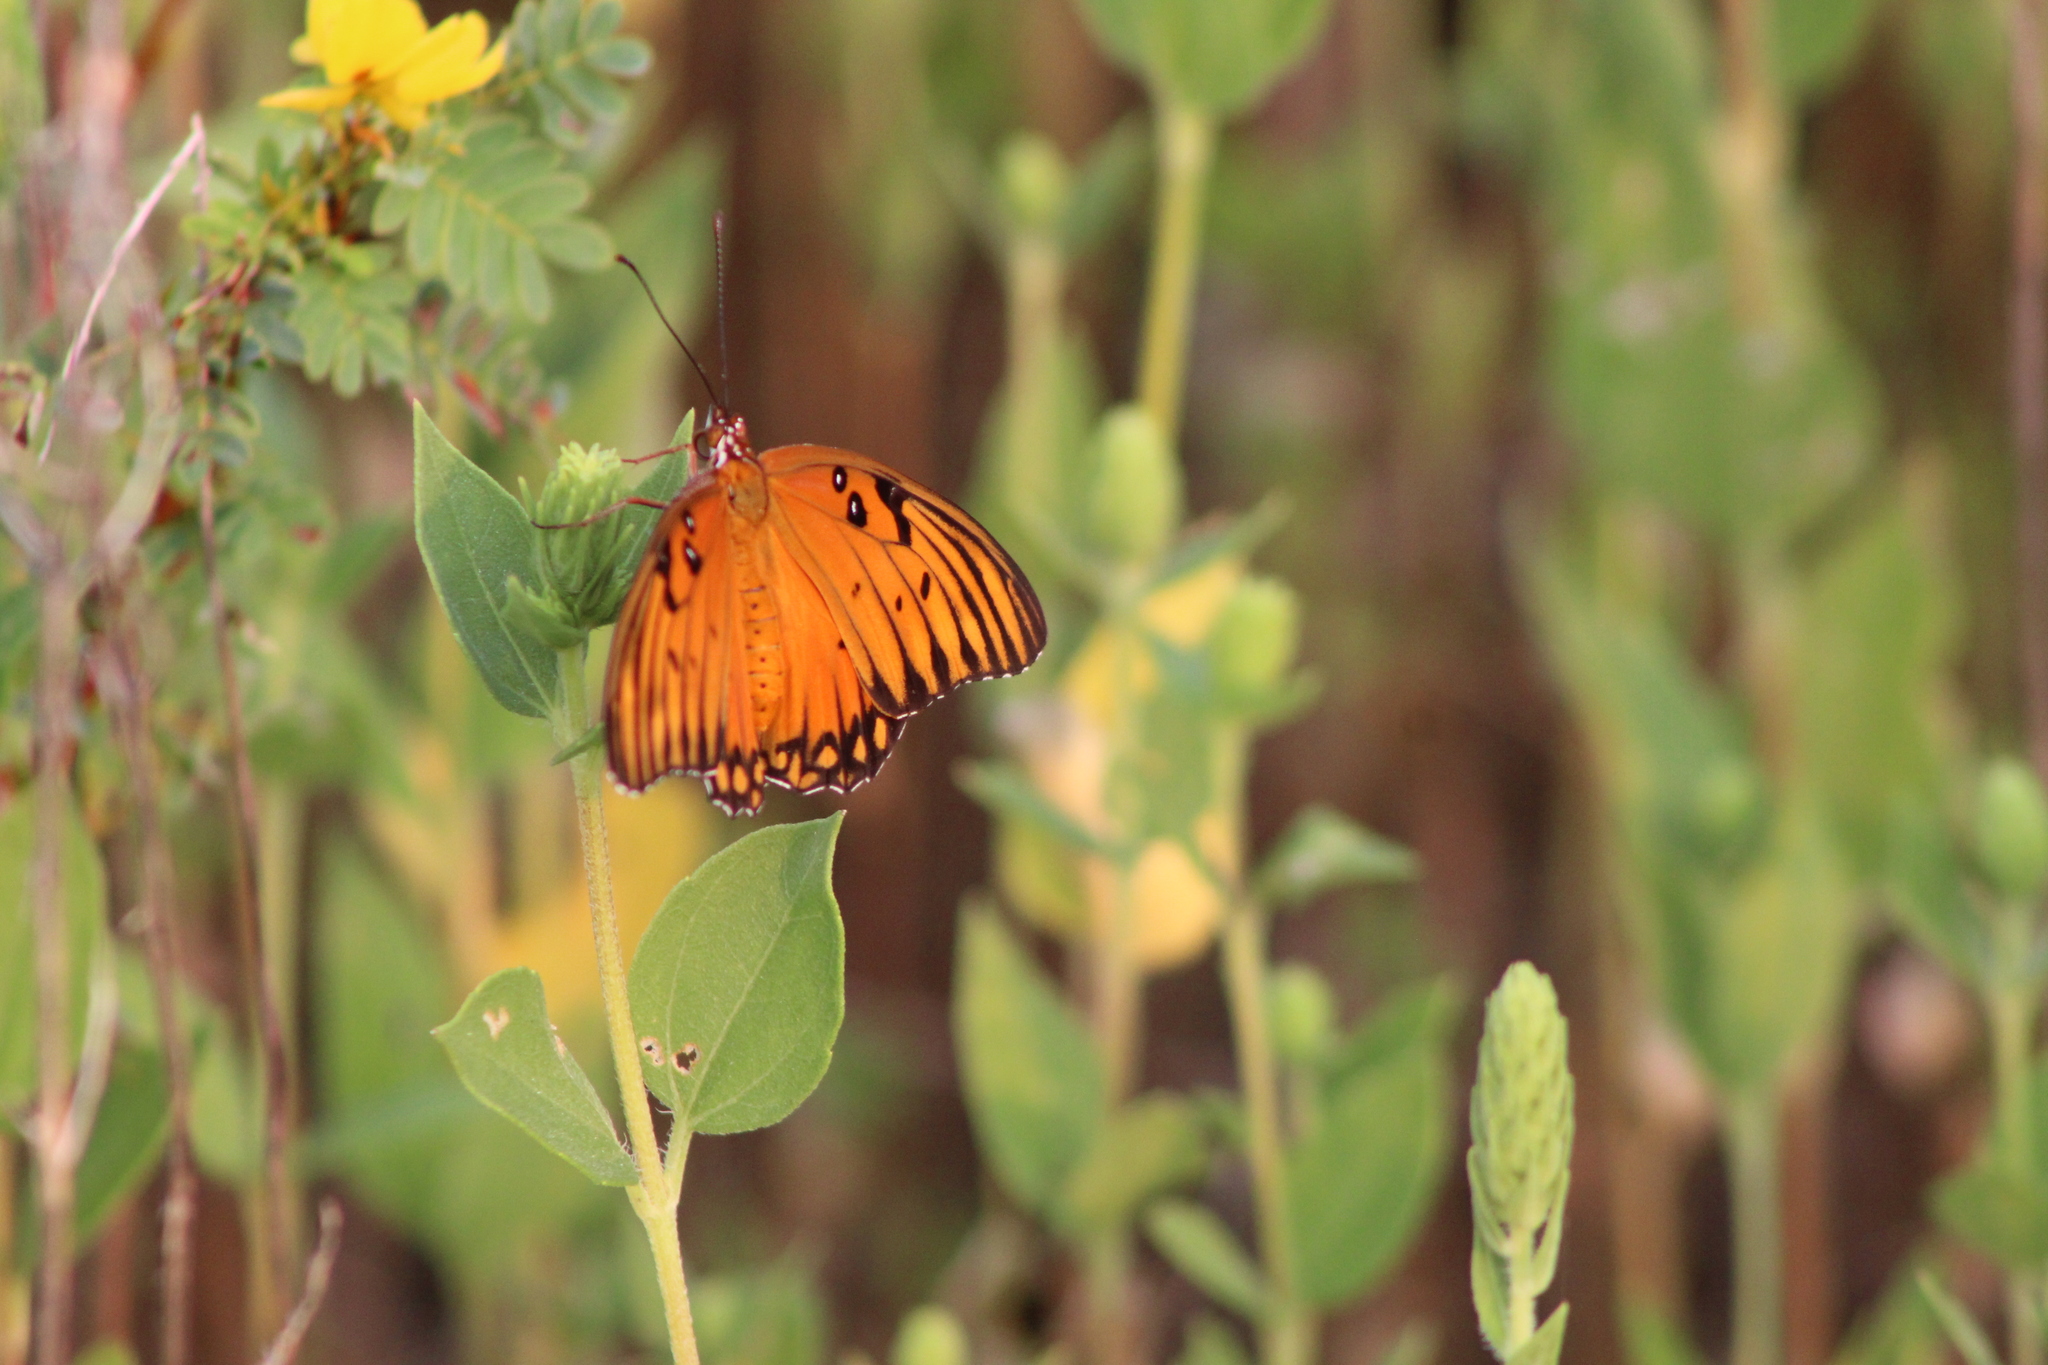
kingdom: Animalia
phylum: Arthropoda
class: Insecta
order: Lepidoptera
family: Nymphalidae
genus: Dione
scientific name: Dione vanillae
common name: Gulf fritillary
